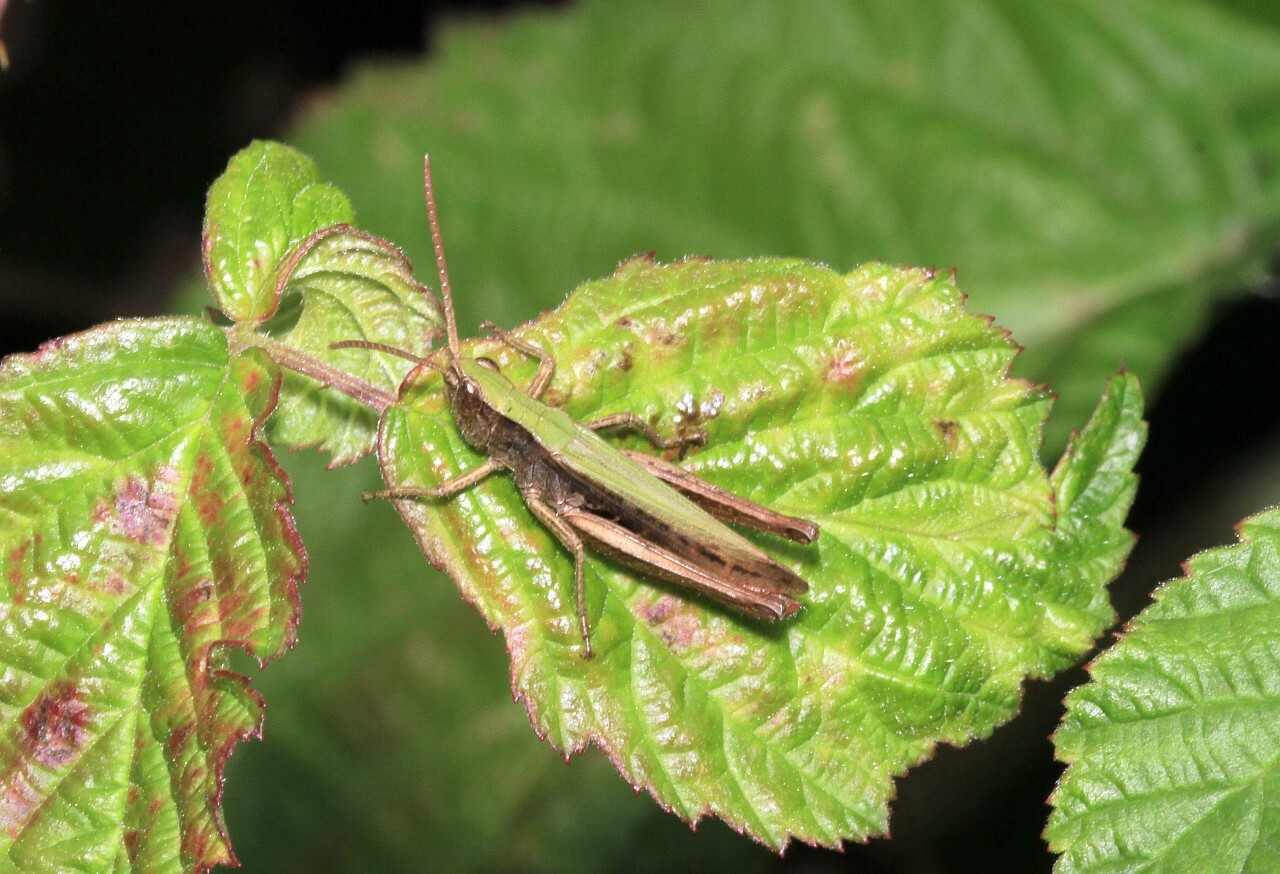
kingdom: Animalia
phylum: Arthropoda
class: Insecta
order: Orthoptera
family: Acrididae
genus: Chorthippus
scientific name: Chorthippus dorsatus
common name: Steppe grasshopper
